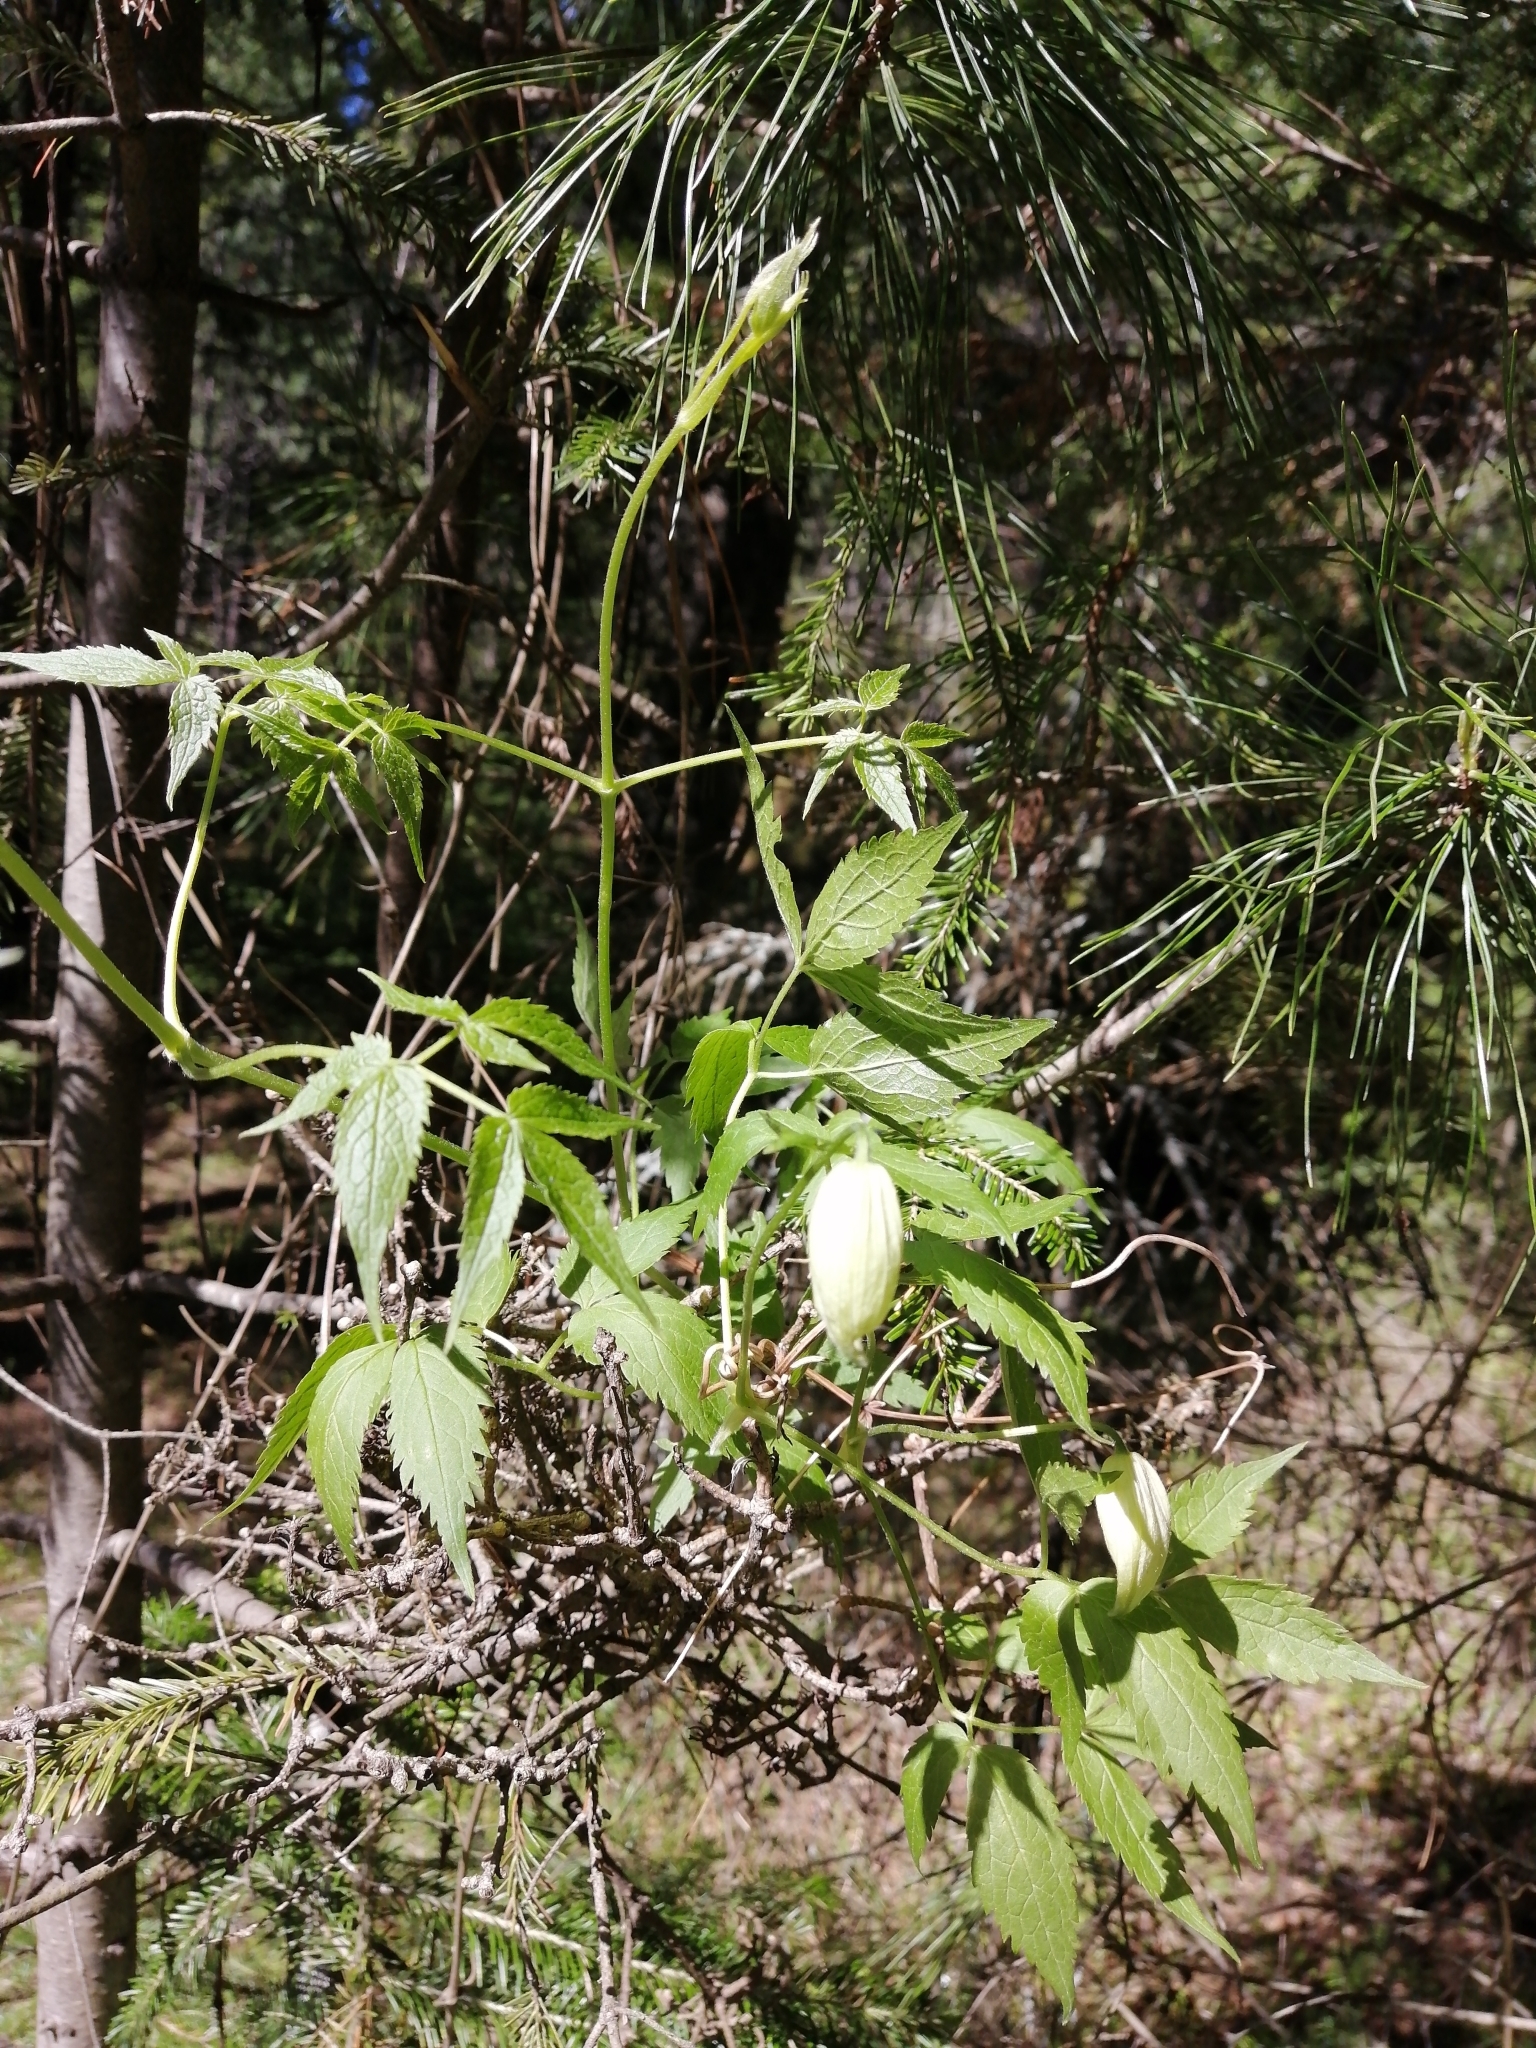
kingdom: Plantae
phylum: Tracheophyta
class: Magnoliopsida
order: Ranunculales
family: Ranunculaceae
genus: Clematis
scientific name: Clematis sibirica
